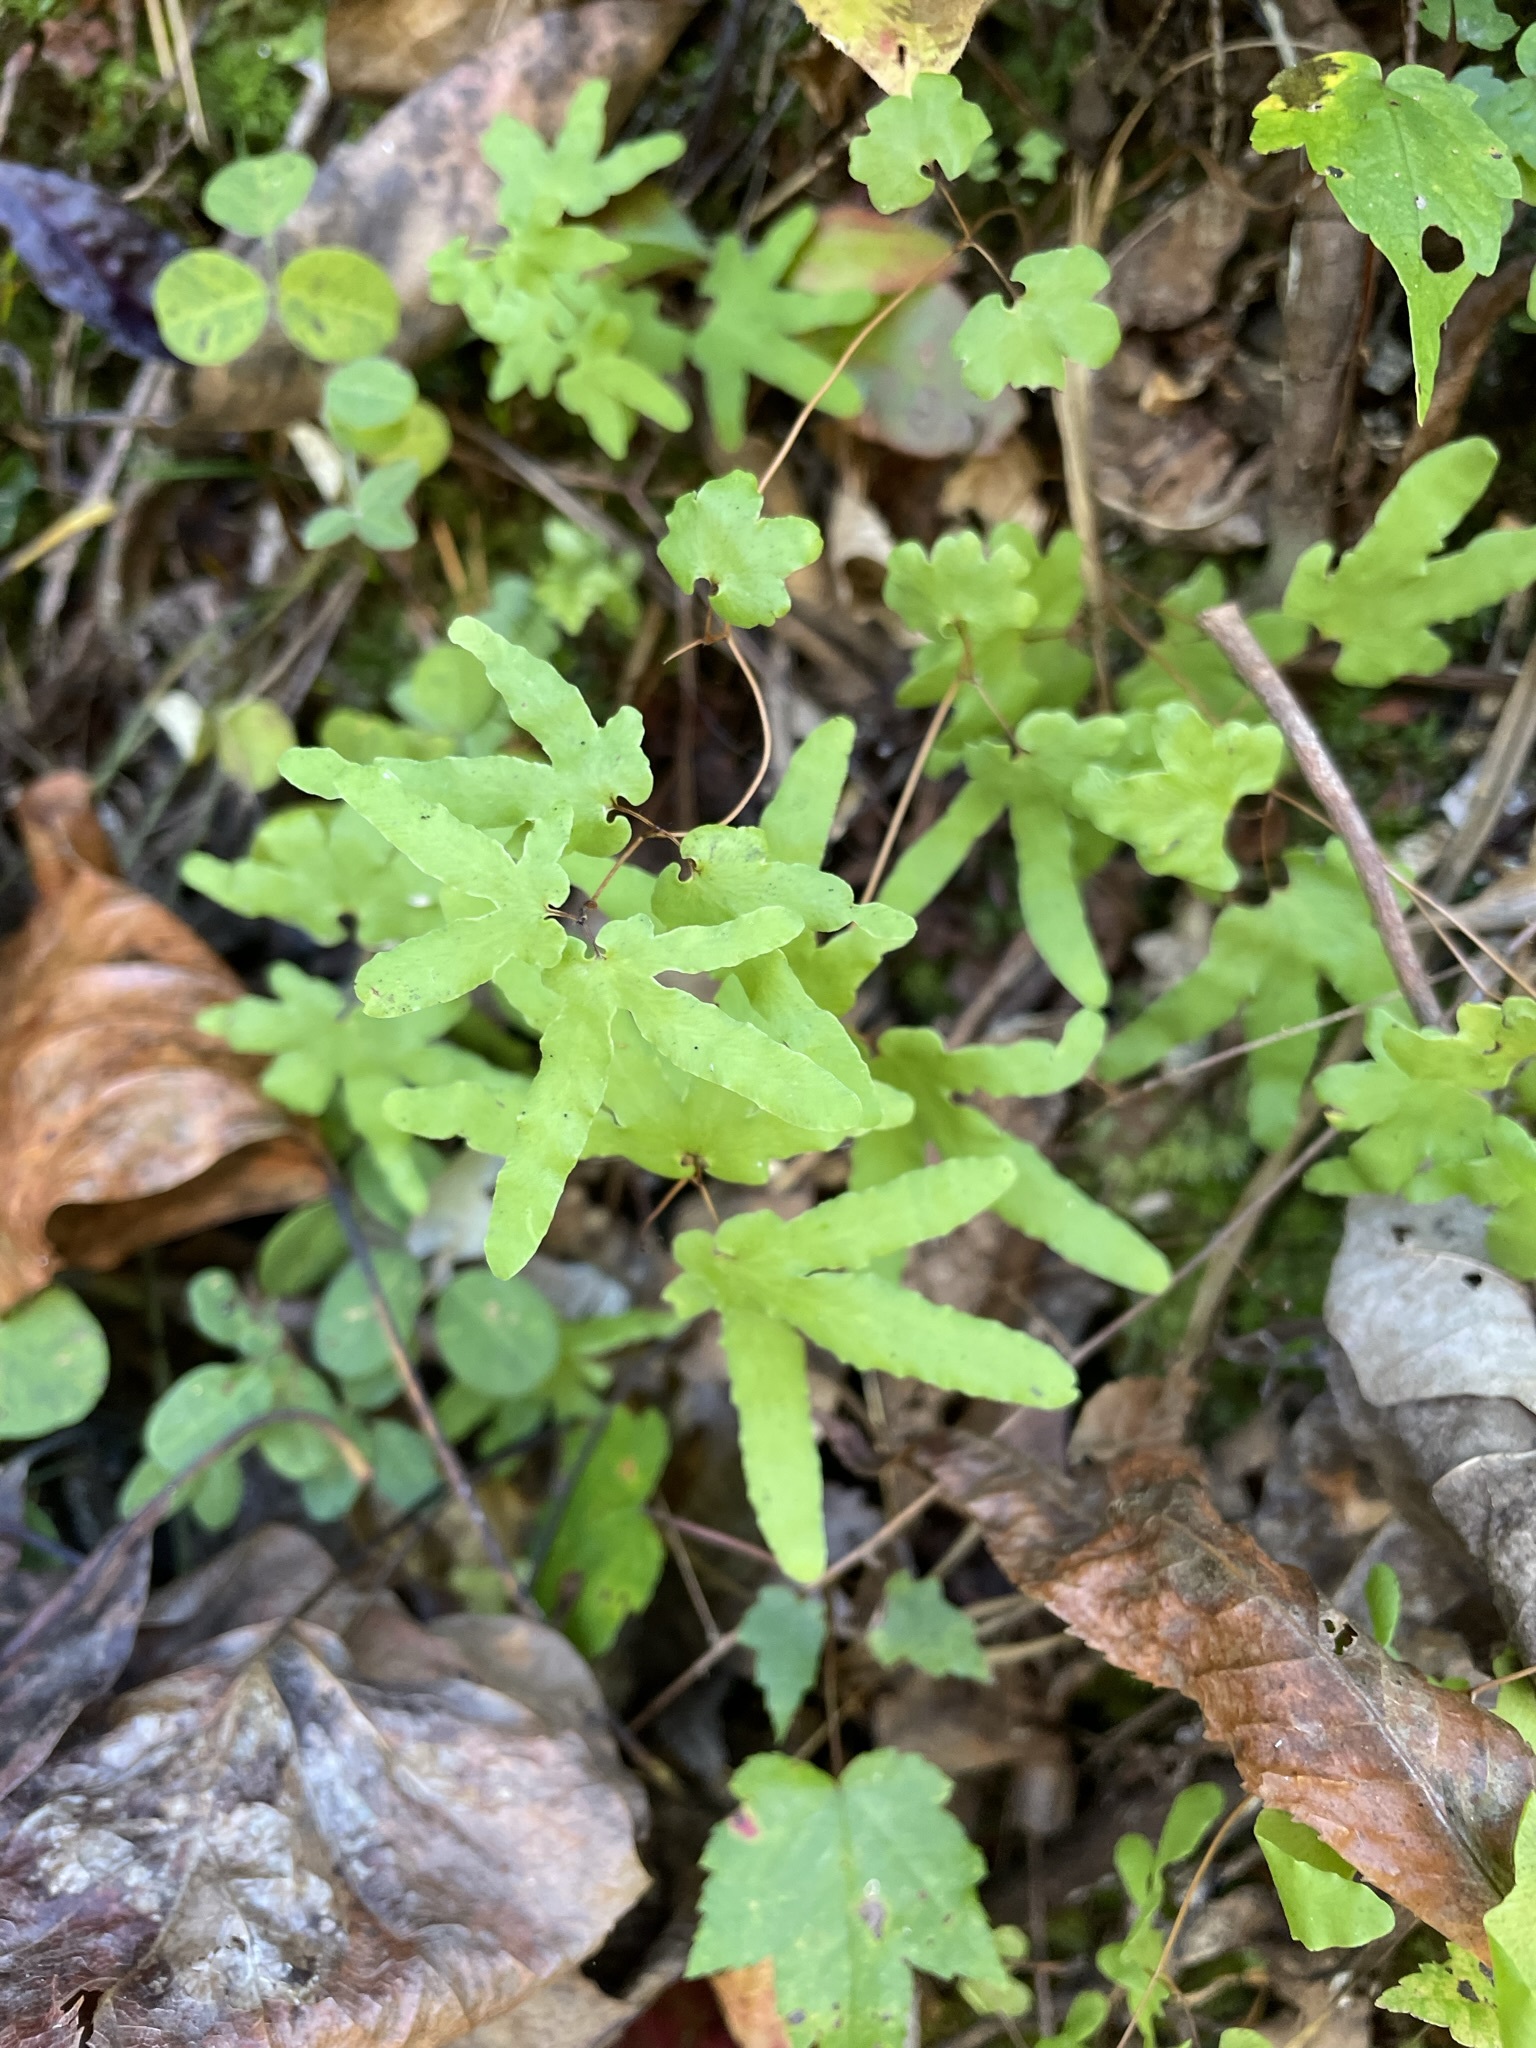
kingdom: Plantae
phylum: Tracheophyta
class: Polypodiopsida
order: Schizaeales
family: Lygodiaceae
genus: Lygodium
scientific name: Lygodium palmatum
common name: American climbing fern
